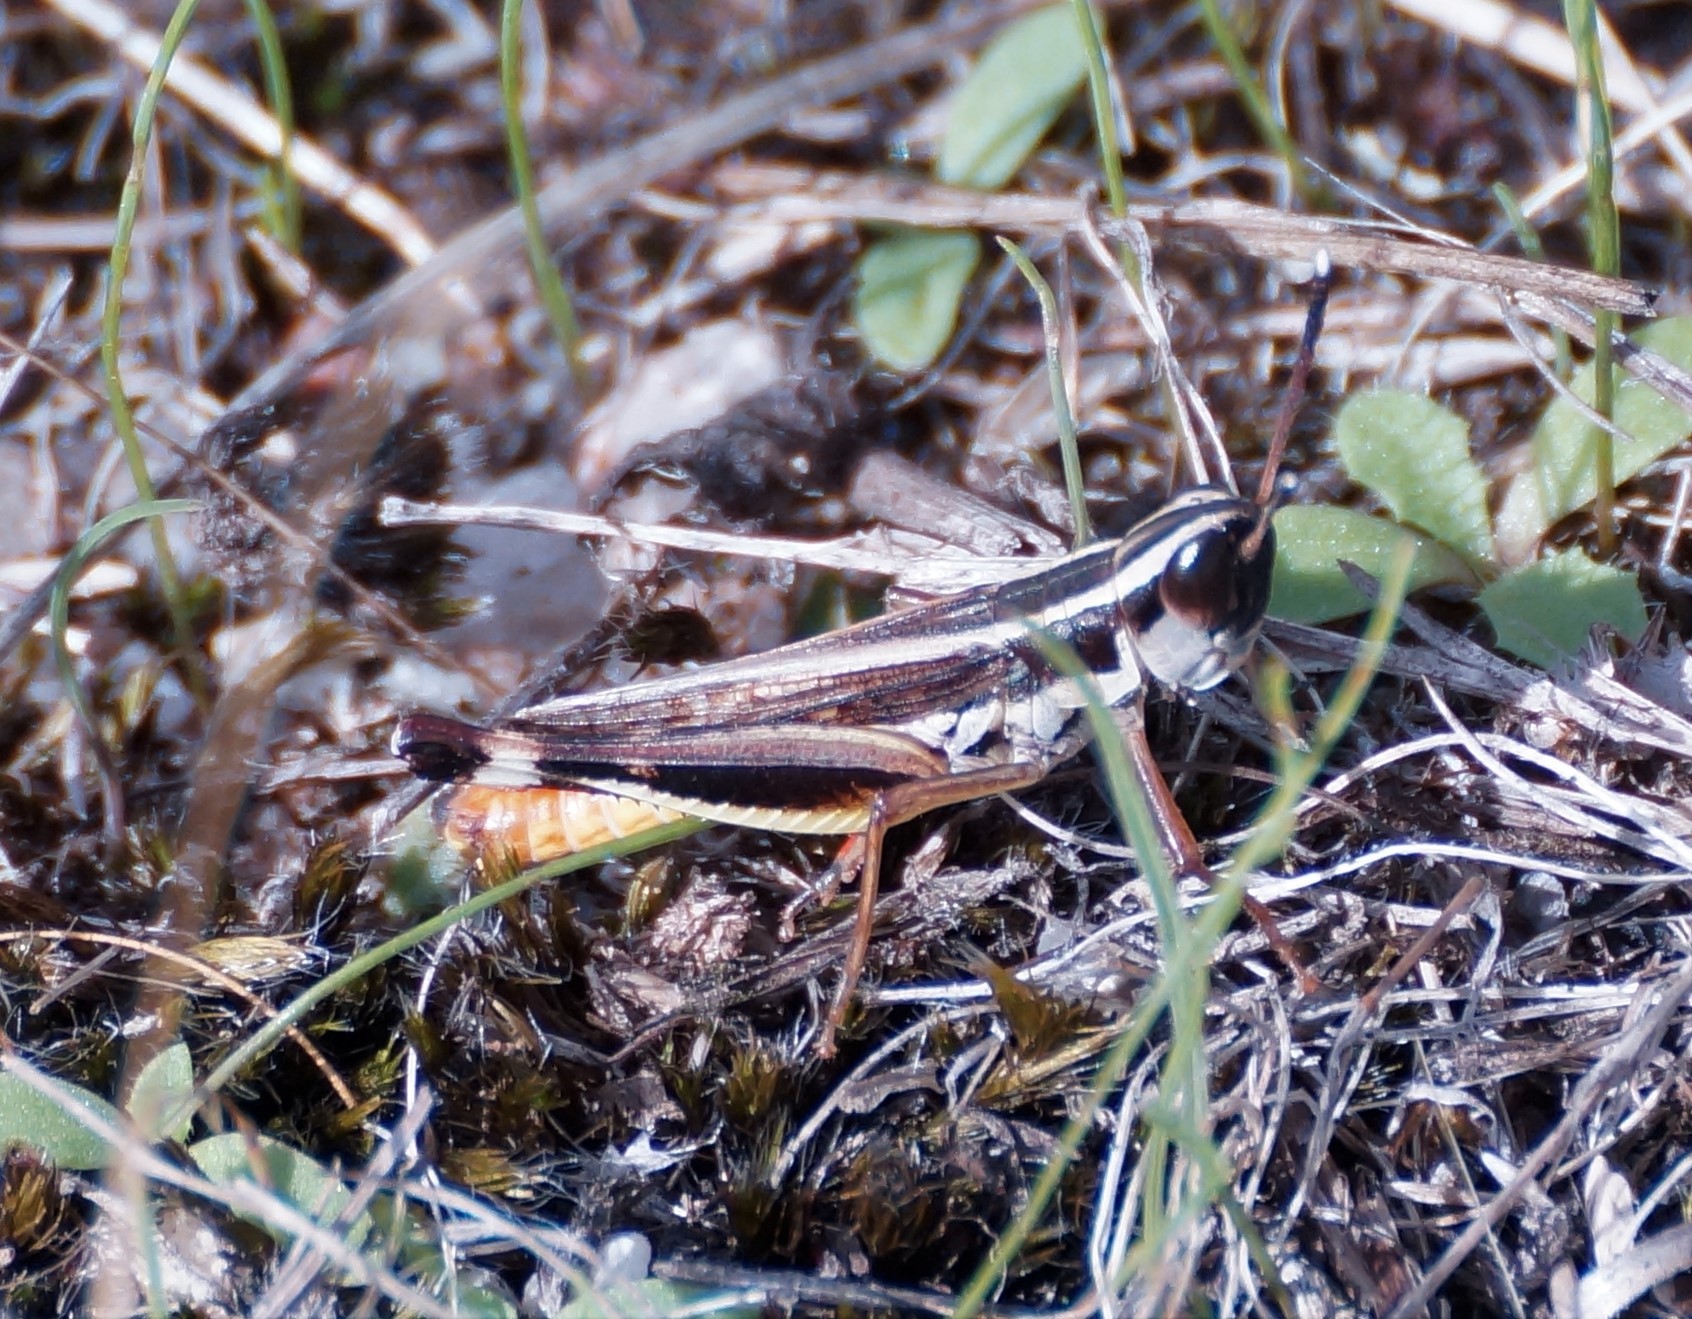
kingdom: Animalia
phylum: Arthropoda
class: Insecta
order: Orthoptera
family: Acrididae
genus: Macrotona
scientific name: Macrotona australis
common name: Common macrotona
